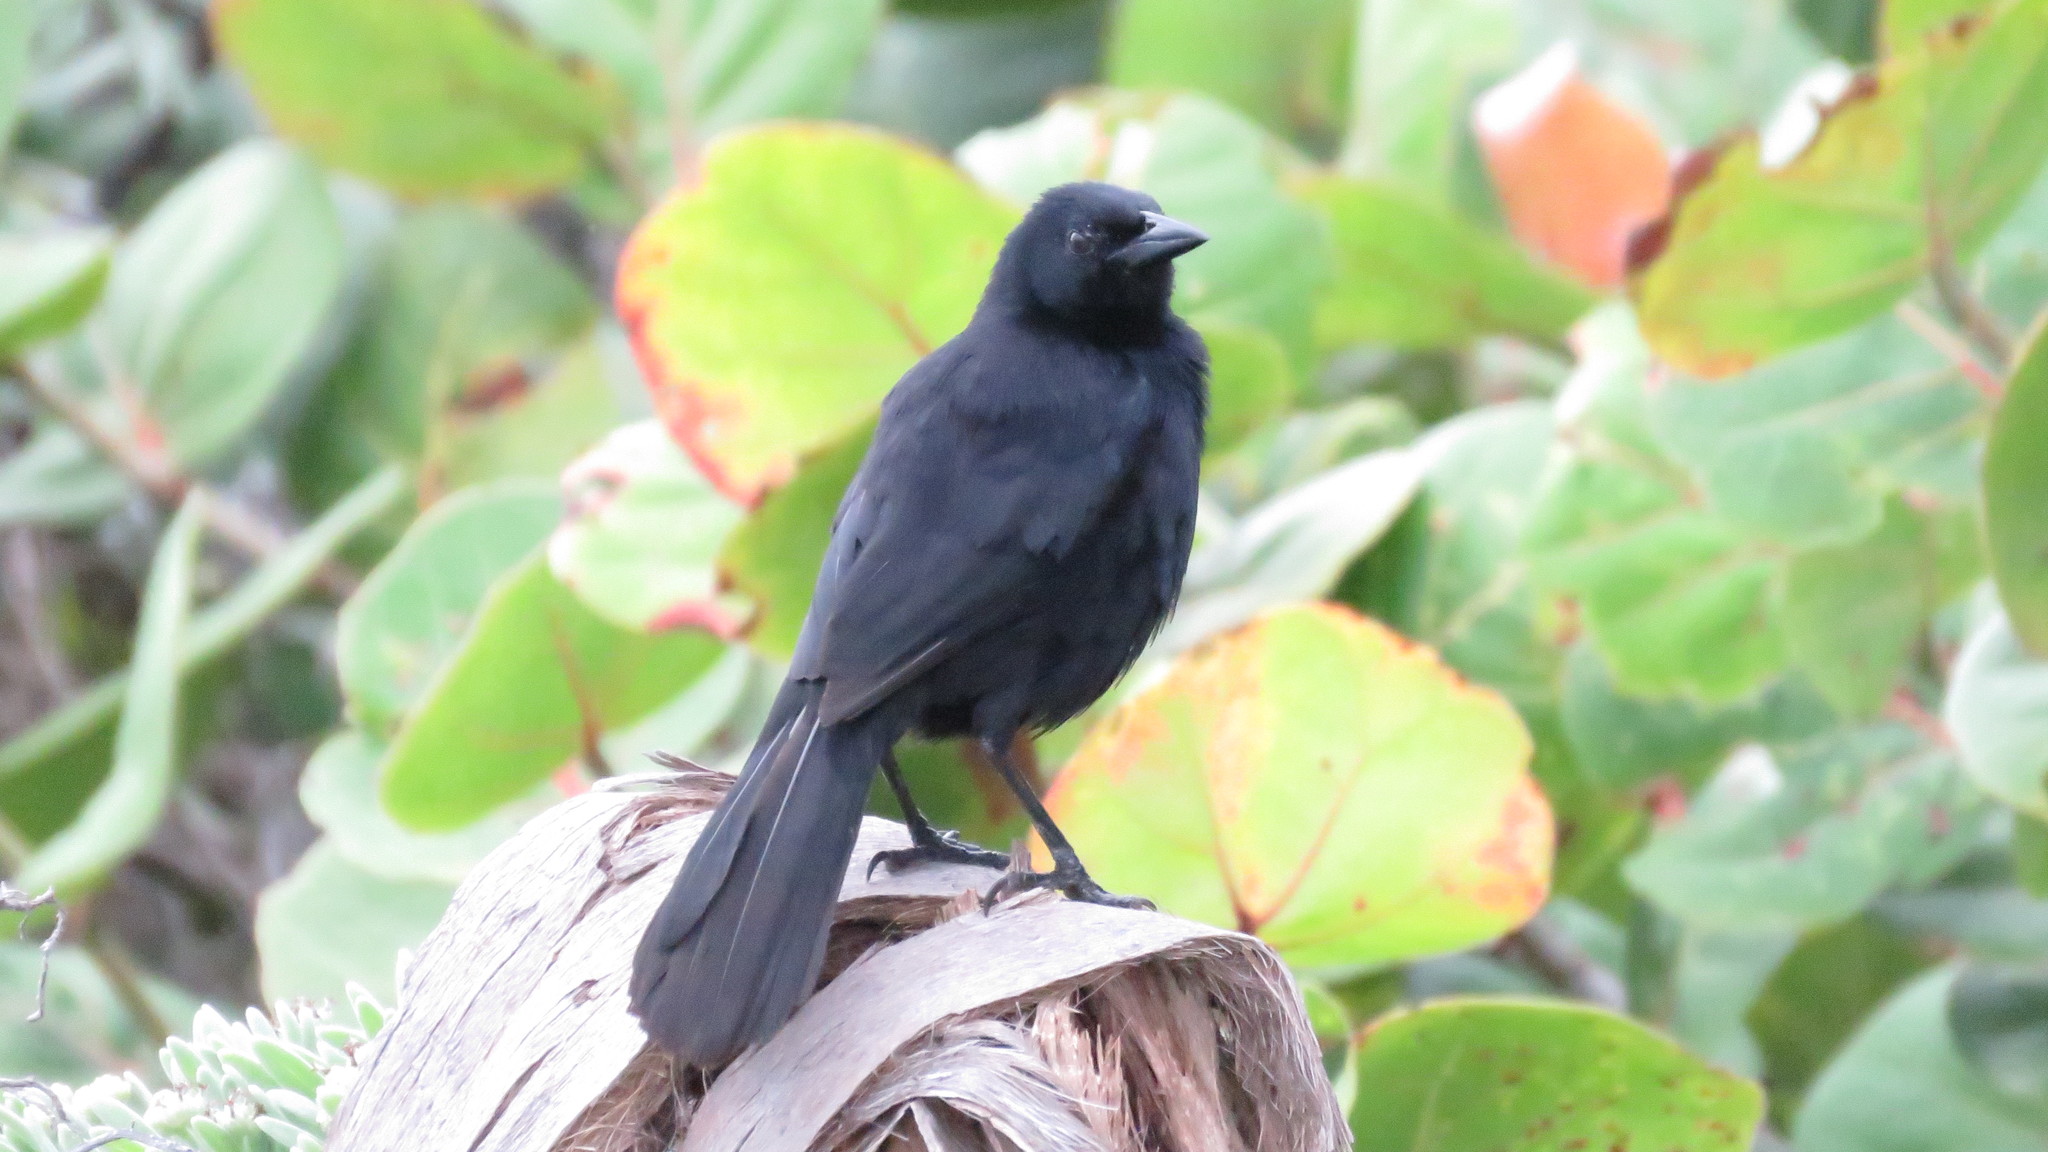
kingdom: Animalia
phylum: Chordata
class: Aves
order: Passeriformes
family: Icteridae
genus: Dives
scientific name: Dives dives
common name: Melodious blackbird
